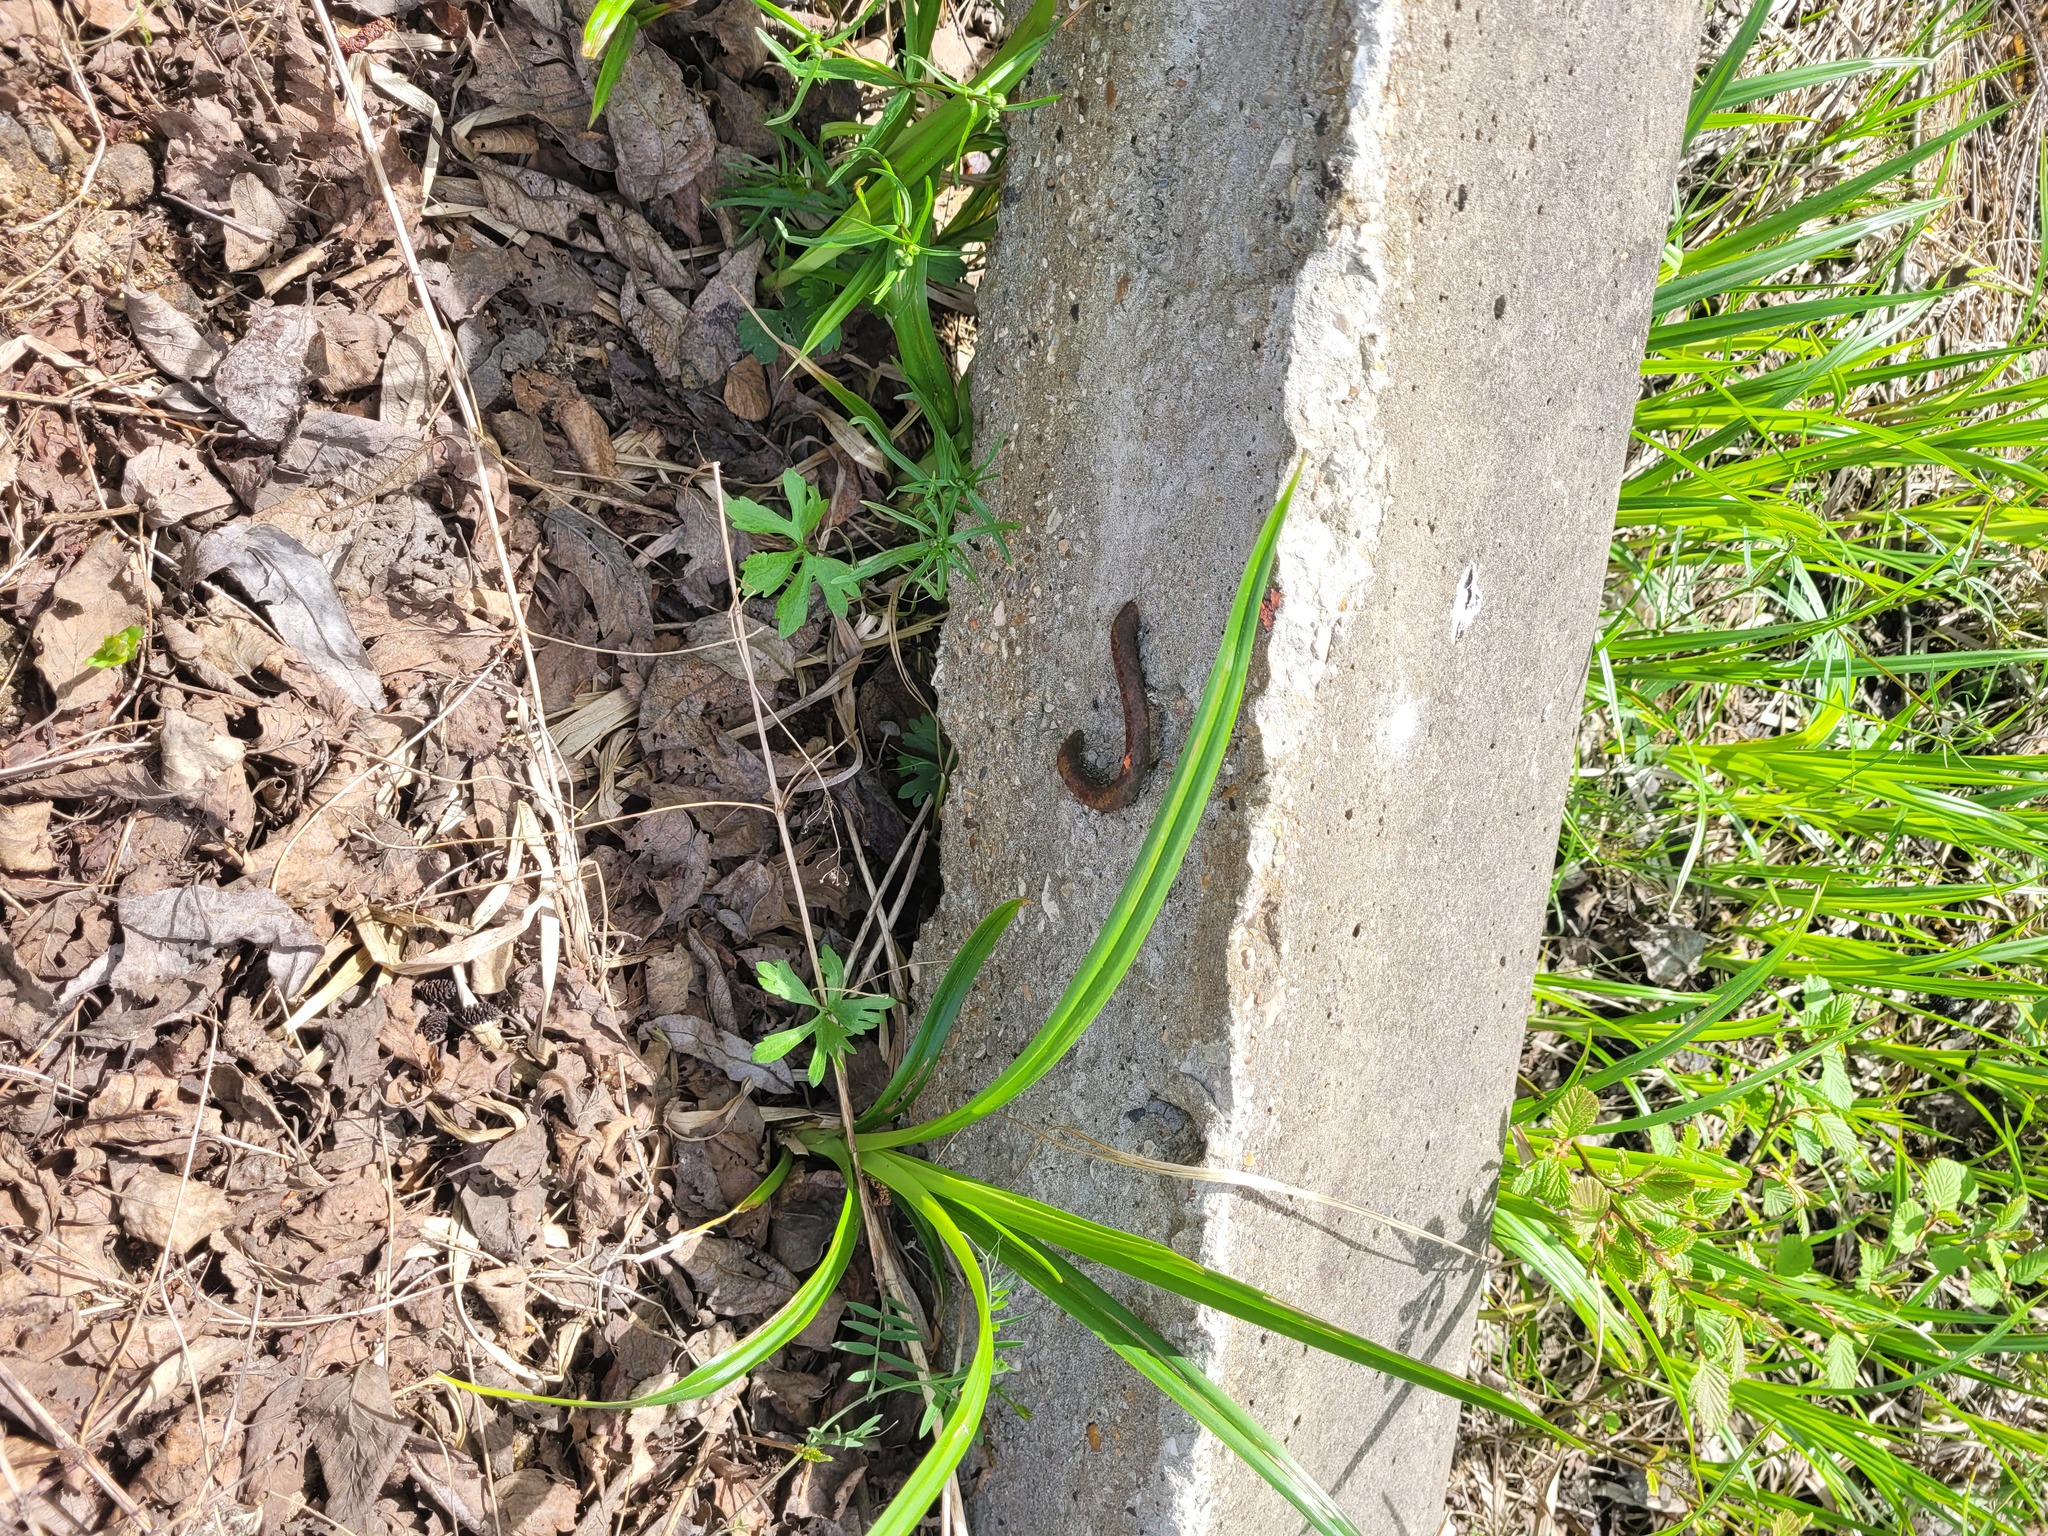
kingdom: Plantae
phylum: Tracheophyta
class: Magnoliopsida
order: Ranunculales
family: Ranunculaceae
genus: Ranunculus
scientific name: Ranunculus auricomus
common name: Goldilocks buttercup
